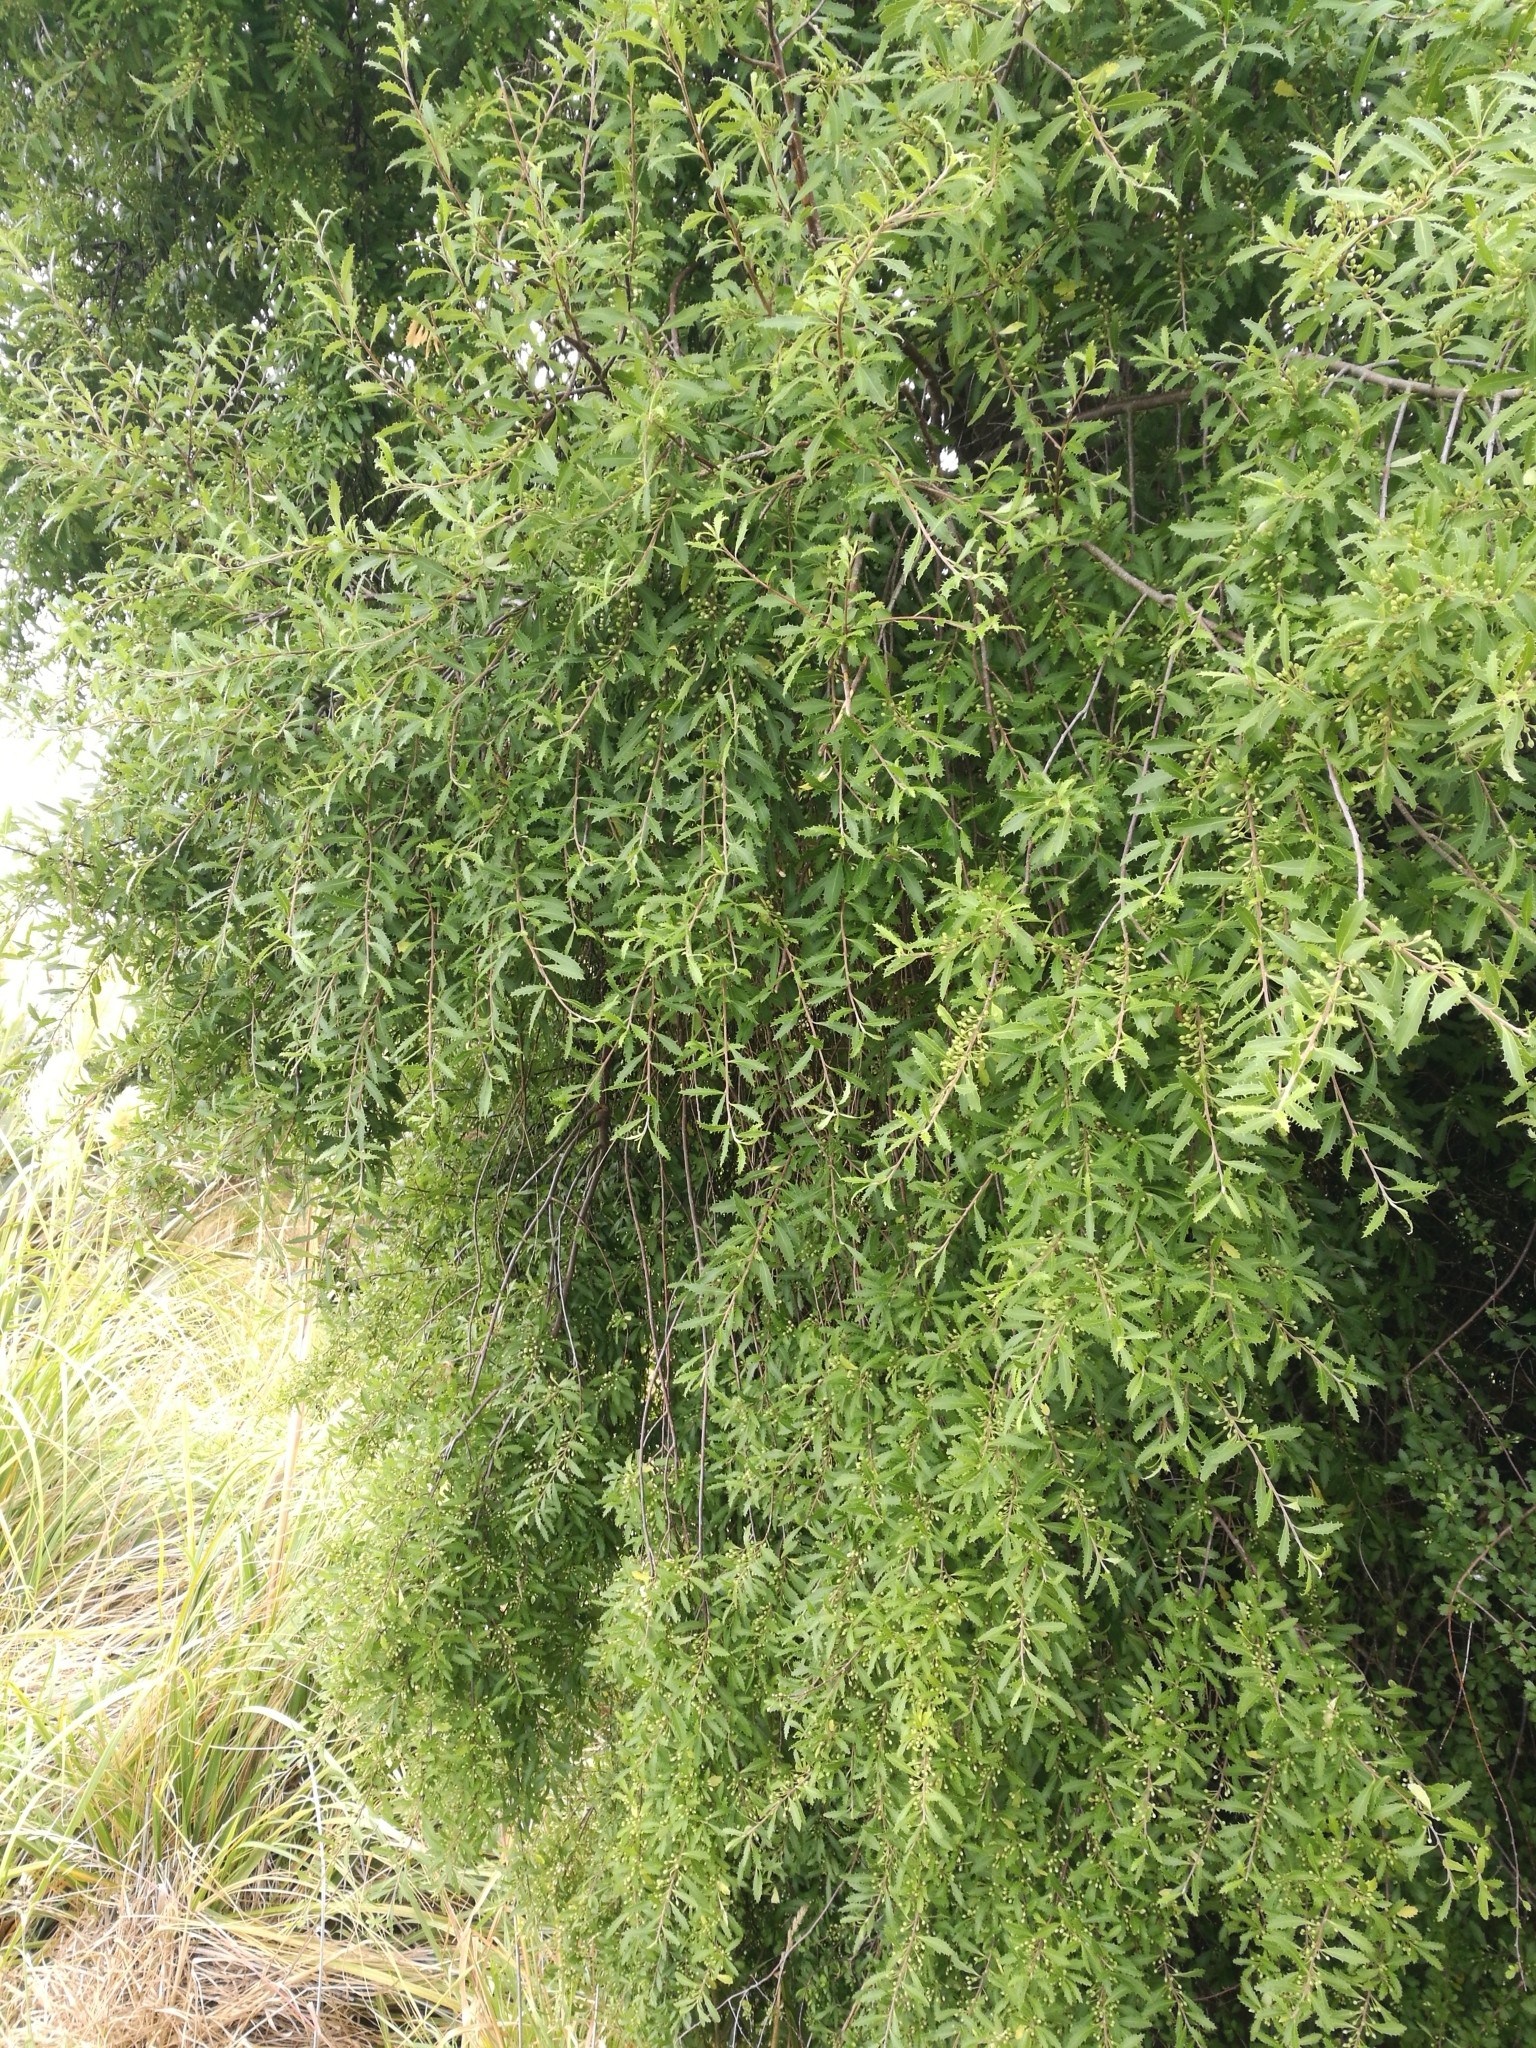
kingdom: Plantae
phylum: Tracheophyta
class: Magnoliopsida
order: Malvales
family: Malvaceae
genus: Hoheria
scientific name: Hoheria angustifolia
